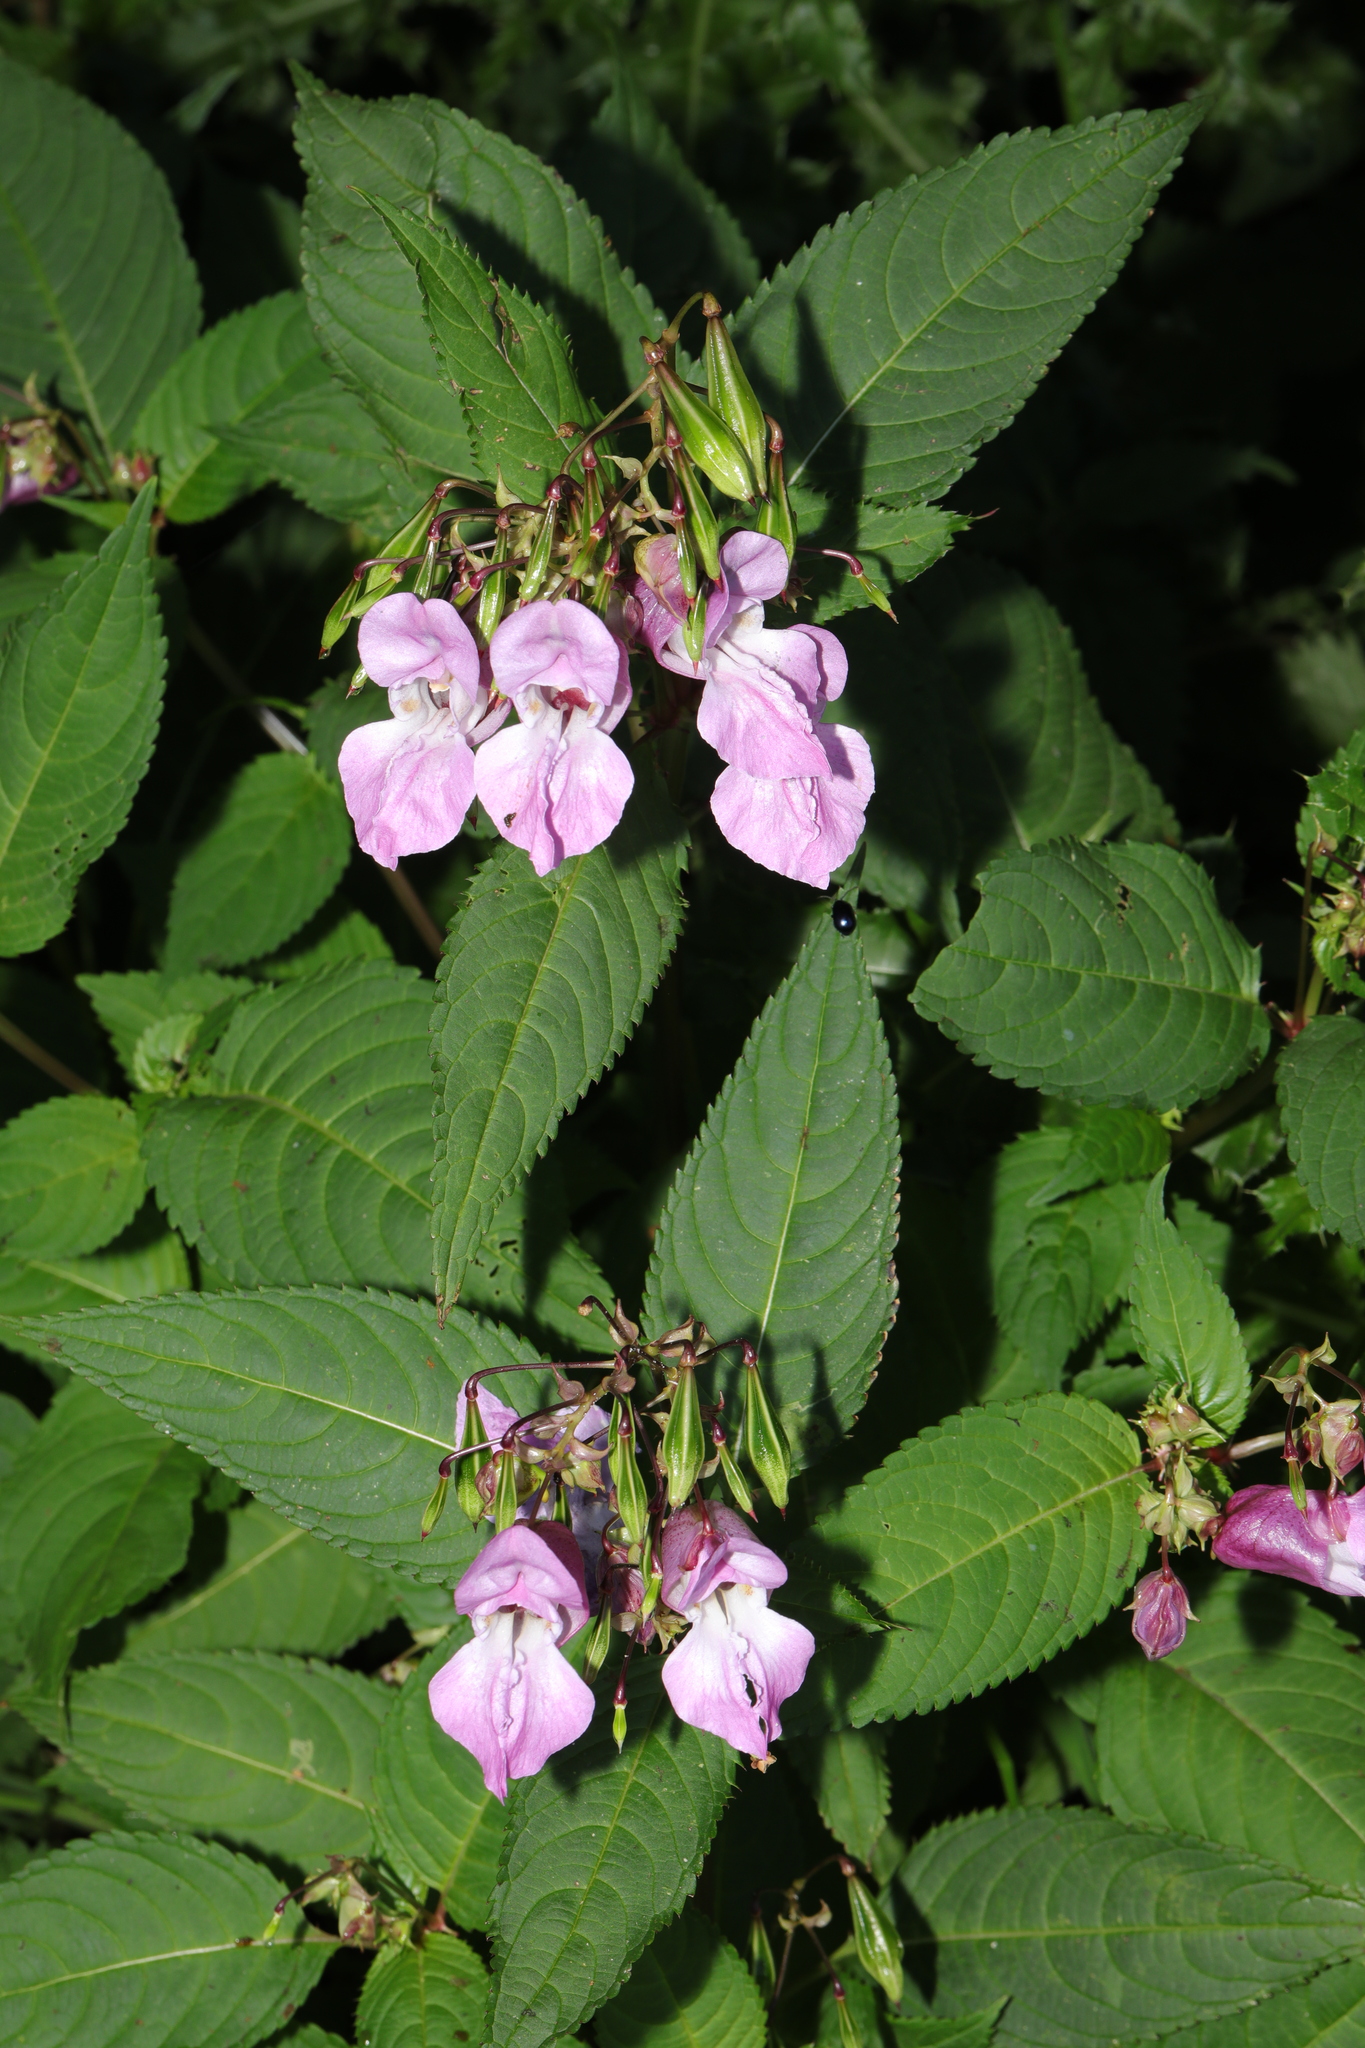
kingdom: Plantae
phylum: Tracheophyta
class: Magnoliopsida
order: Ericales
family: Balsaminaceae
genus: Impatiens
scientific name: Impatiens glandulifera
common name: Himalayan balsam
